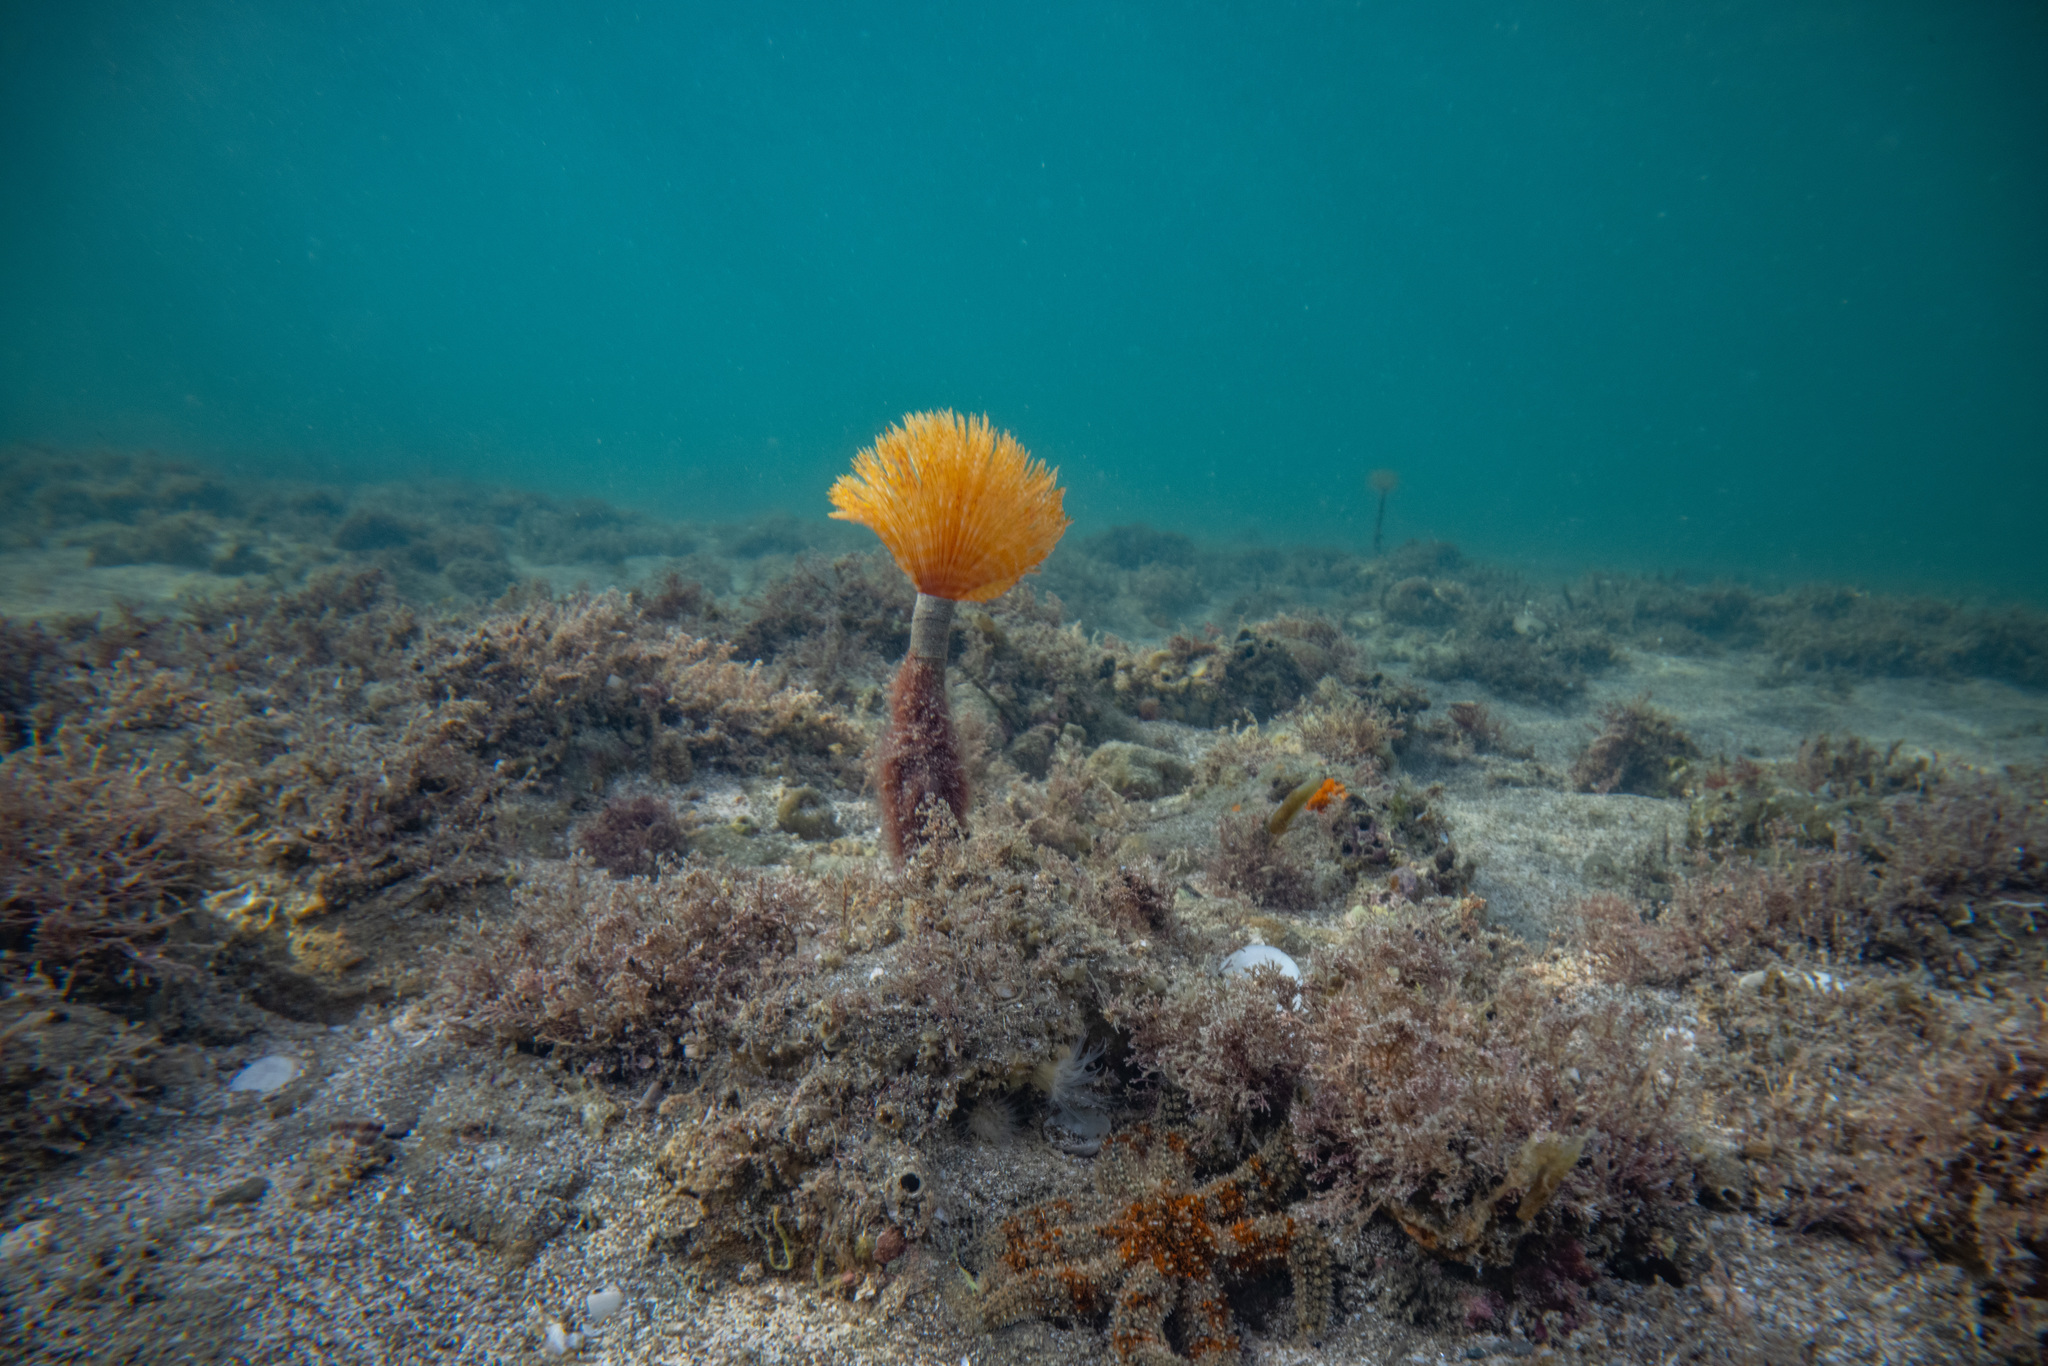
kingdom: Animalia
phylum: Annelida
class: Polychaeta
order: Sabellida
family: Sabellidae
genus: Sabella
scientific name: Sabella spallanzanii
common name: Feather duster worm
